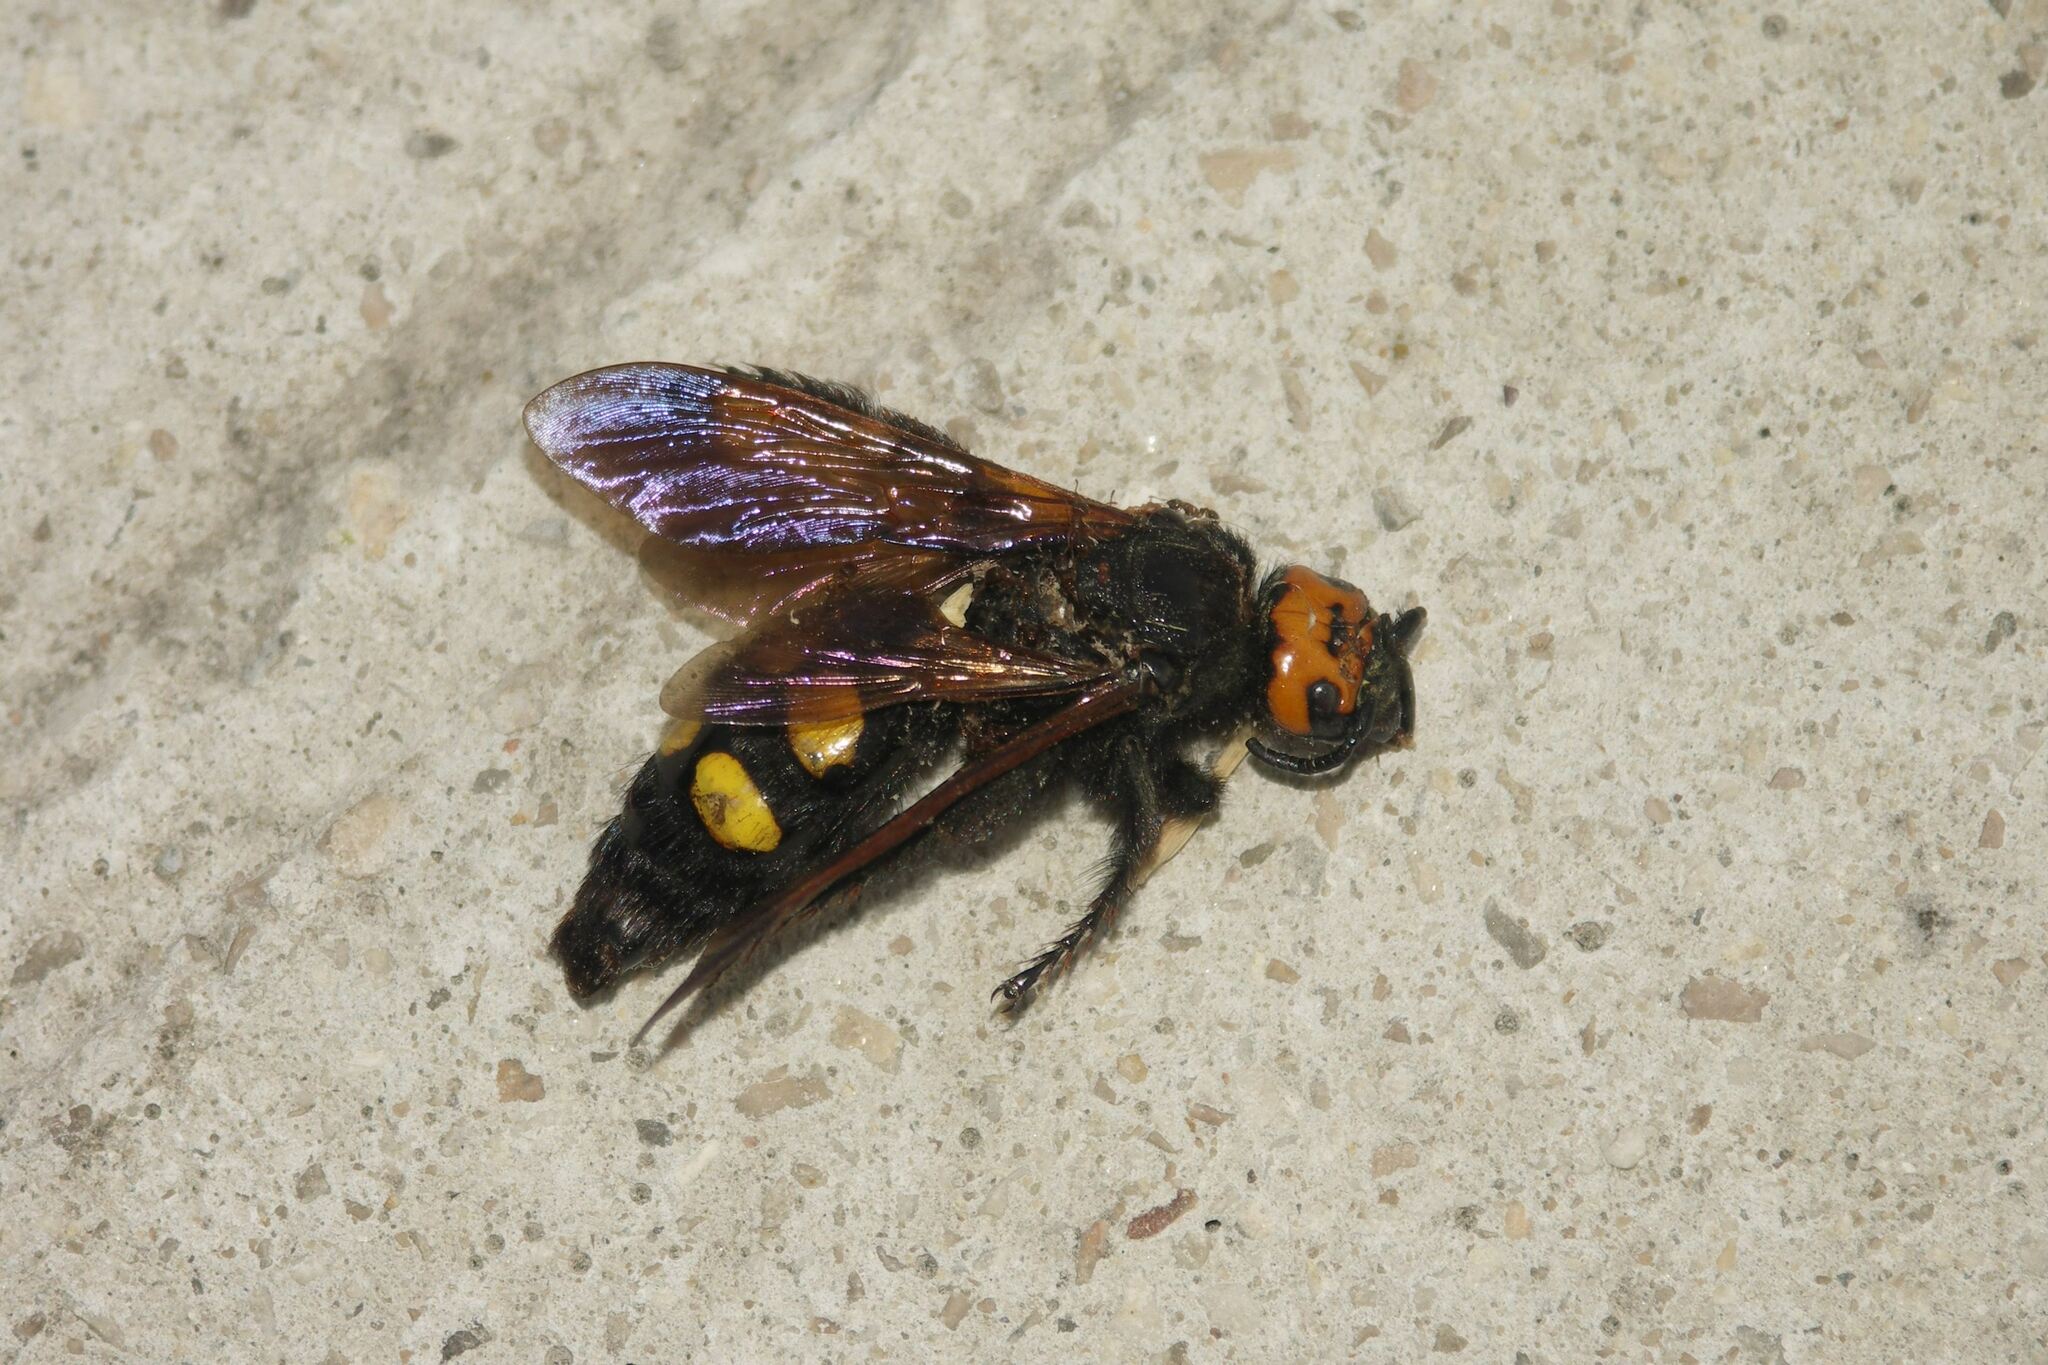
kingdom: Animalia
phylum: Arthropoda
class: Insecta
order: Hymenoptera
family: Scoliidae
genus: Megascolia
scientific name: Megascolia maculata
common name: Mammoth wasp
